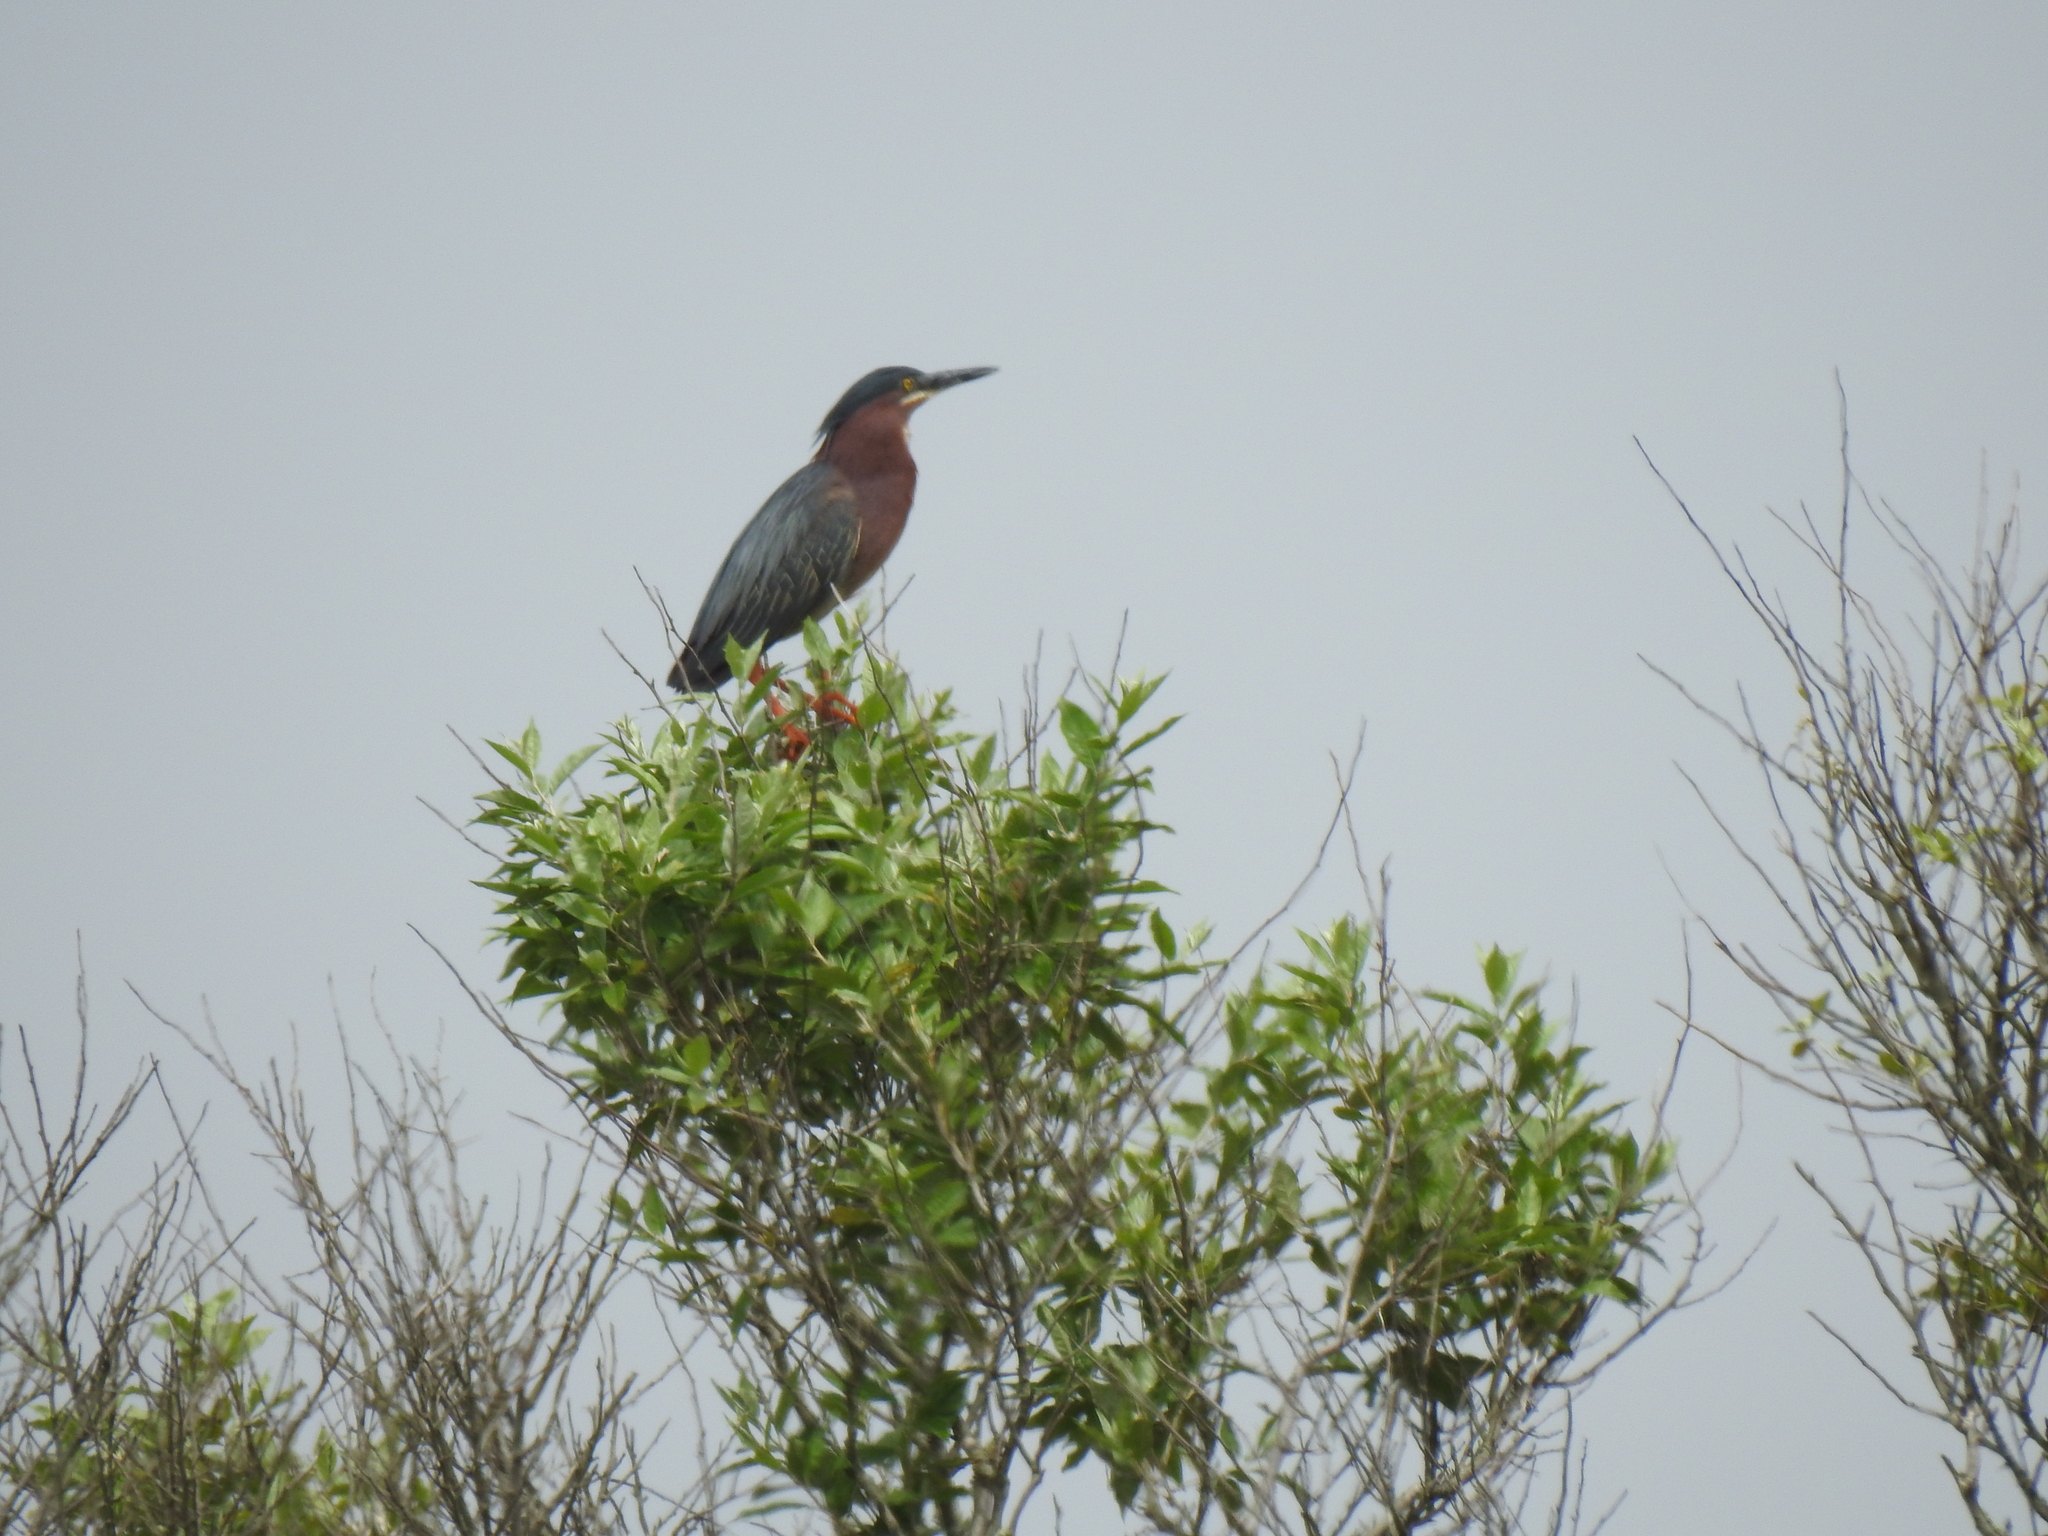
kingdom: Animalia
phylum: Chordata
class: Aves
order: Pelecaniformes
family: Ardeidae
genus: Butorides
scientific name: Butorides virescens
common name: Green heron
